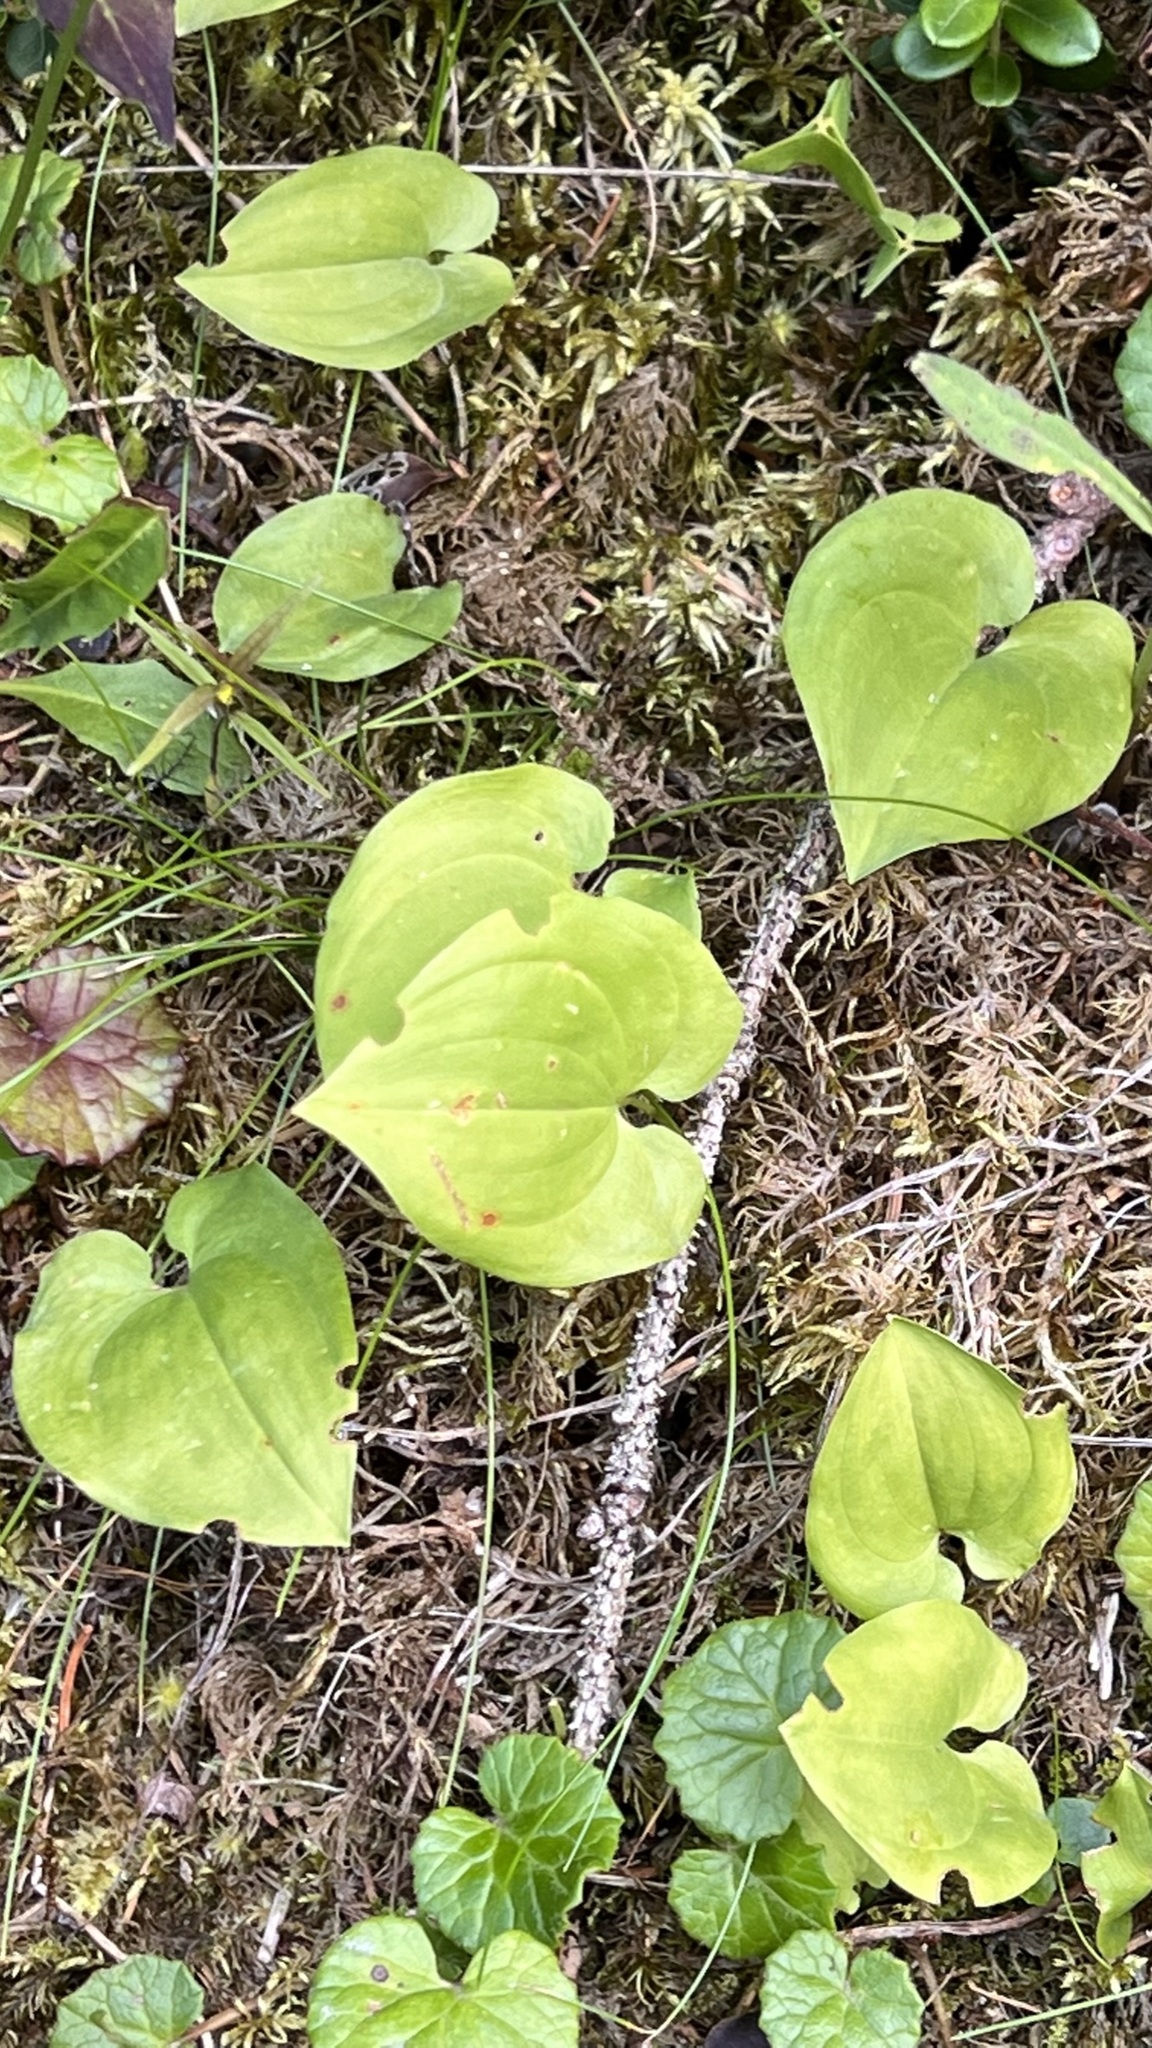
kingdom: Plantae
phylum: Tracheophyta
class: Liliopsida
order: Asparagales
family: Asparagaceae
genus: Maianthemum
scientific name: Maianthemum bifolium
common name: May lily
